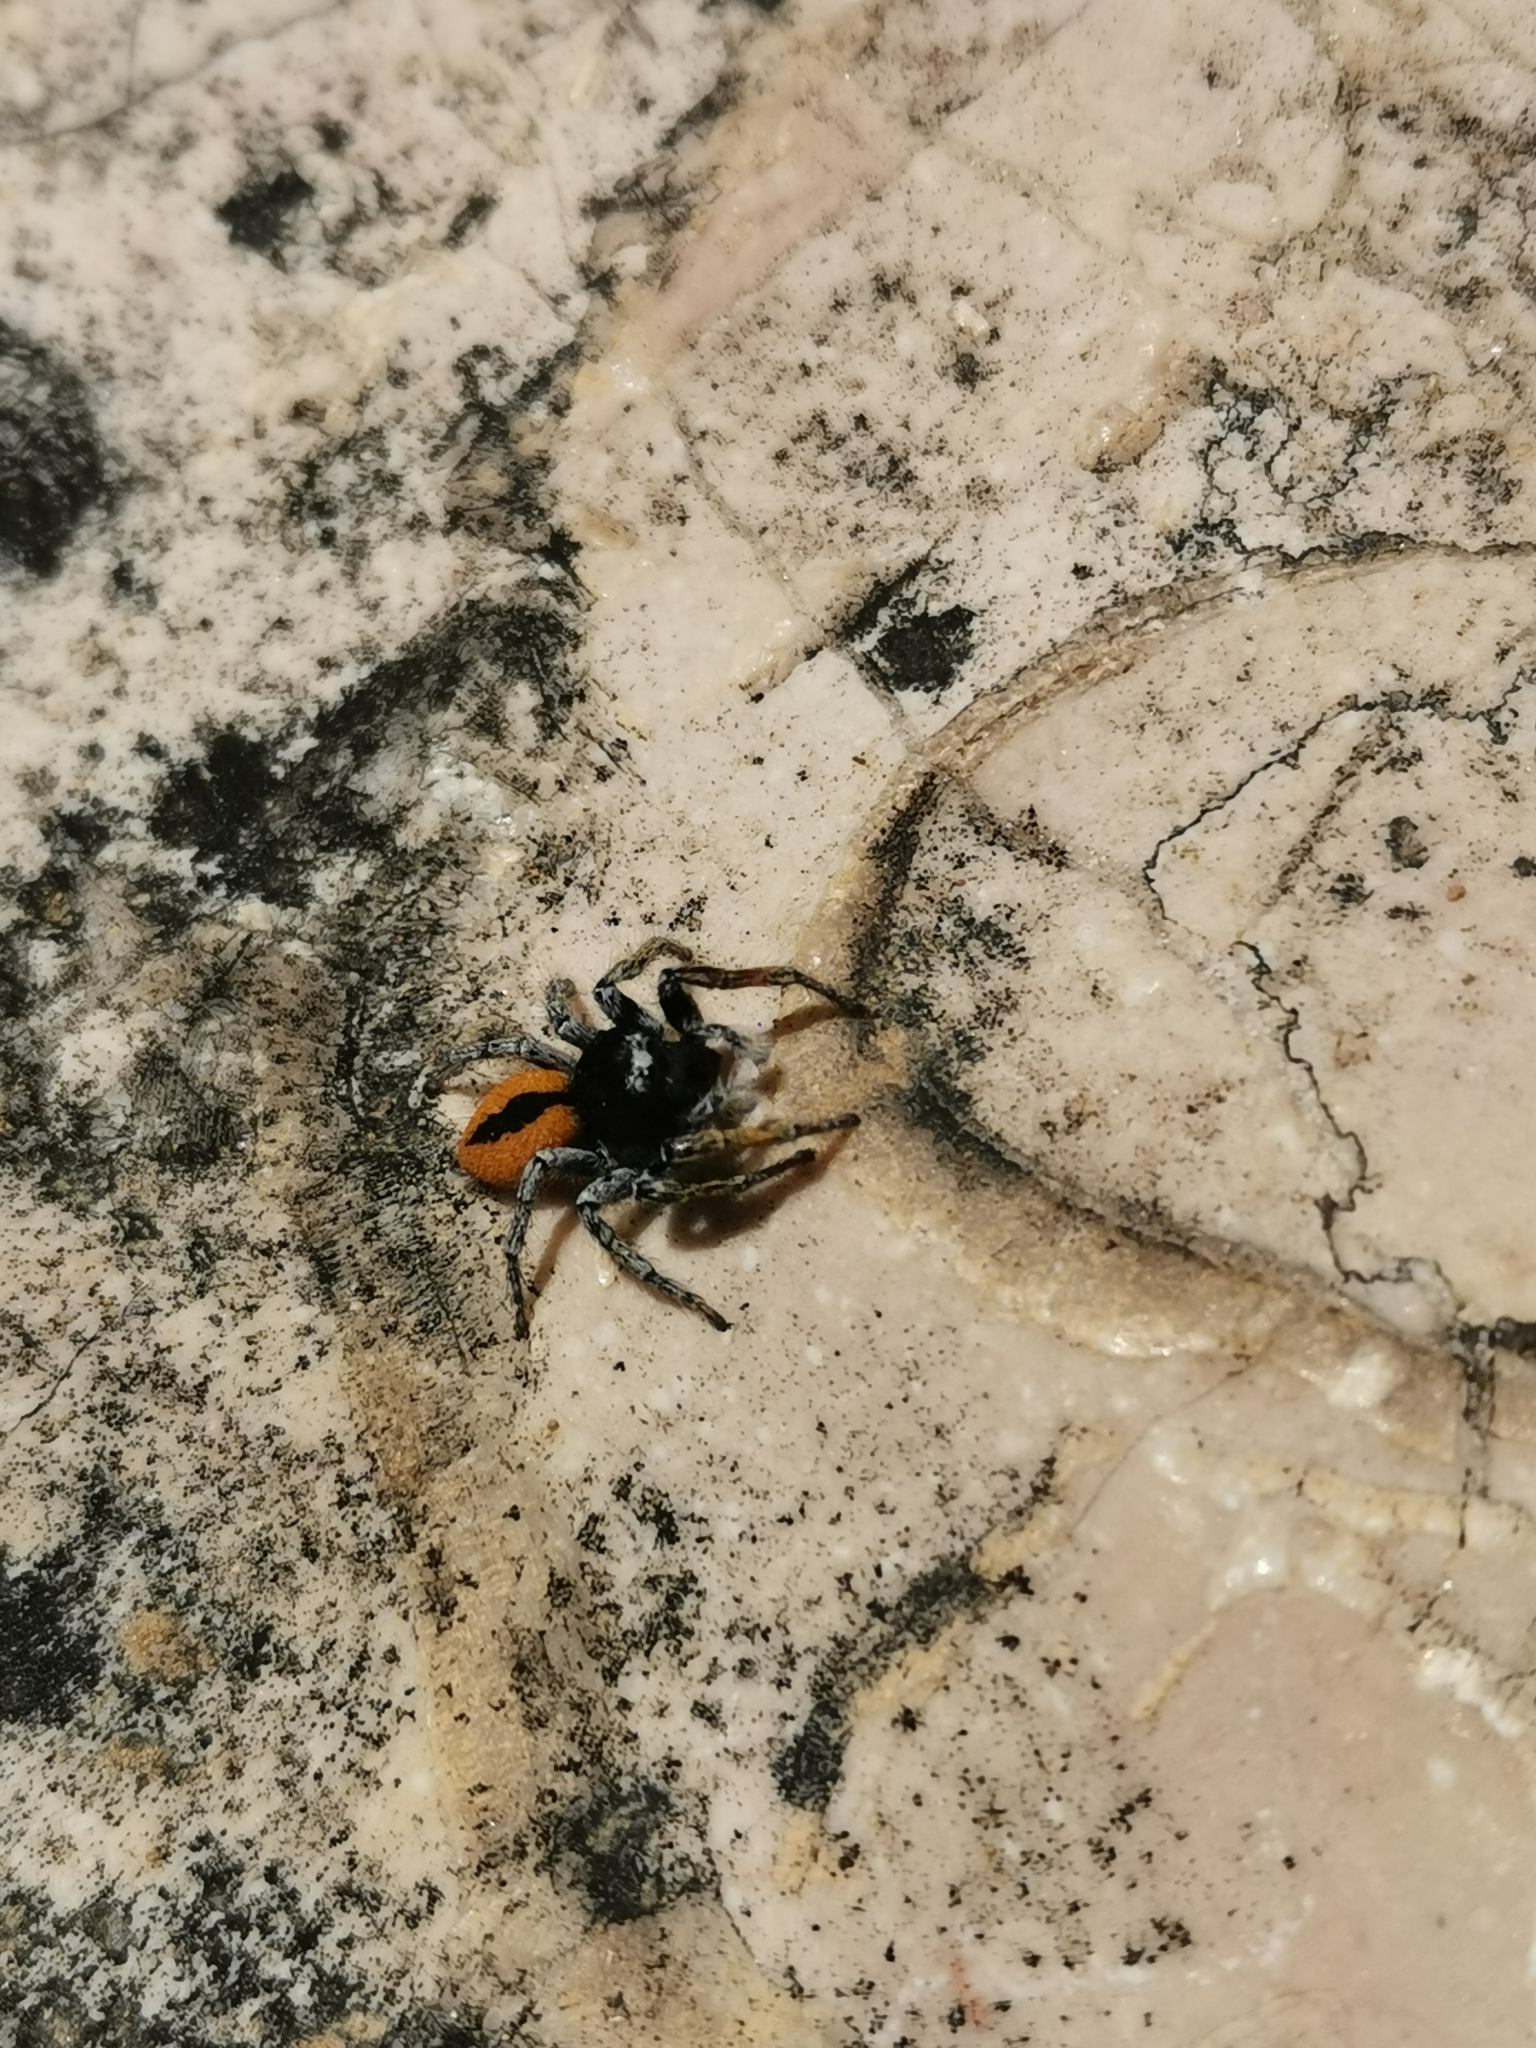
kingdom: Animalia
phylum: Arthropoda
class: Arachnida
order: Araneae
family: Salticidae
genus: Philaeus
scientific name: Philaeus chrysops
